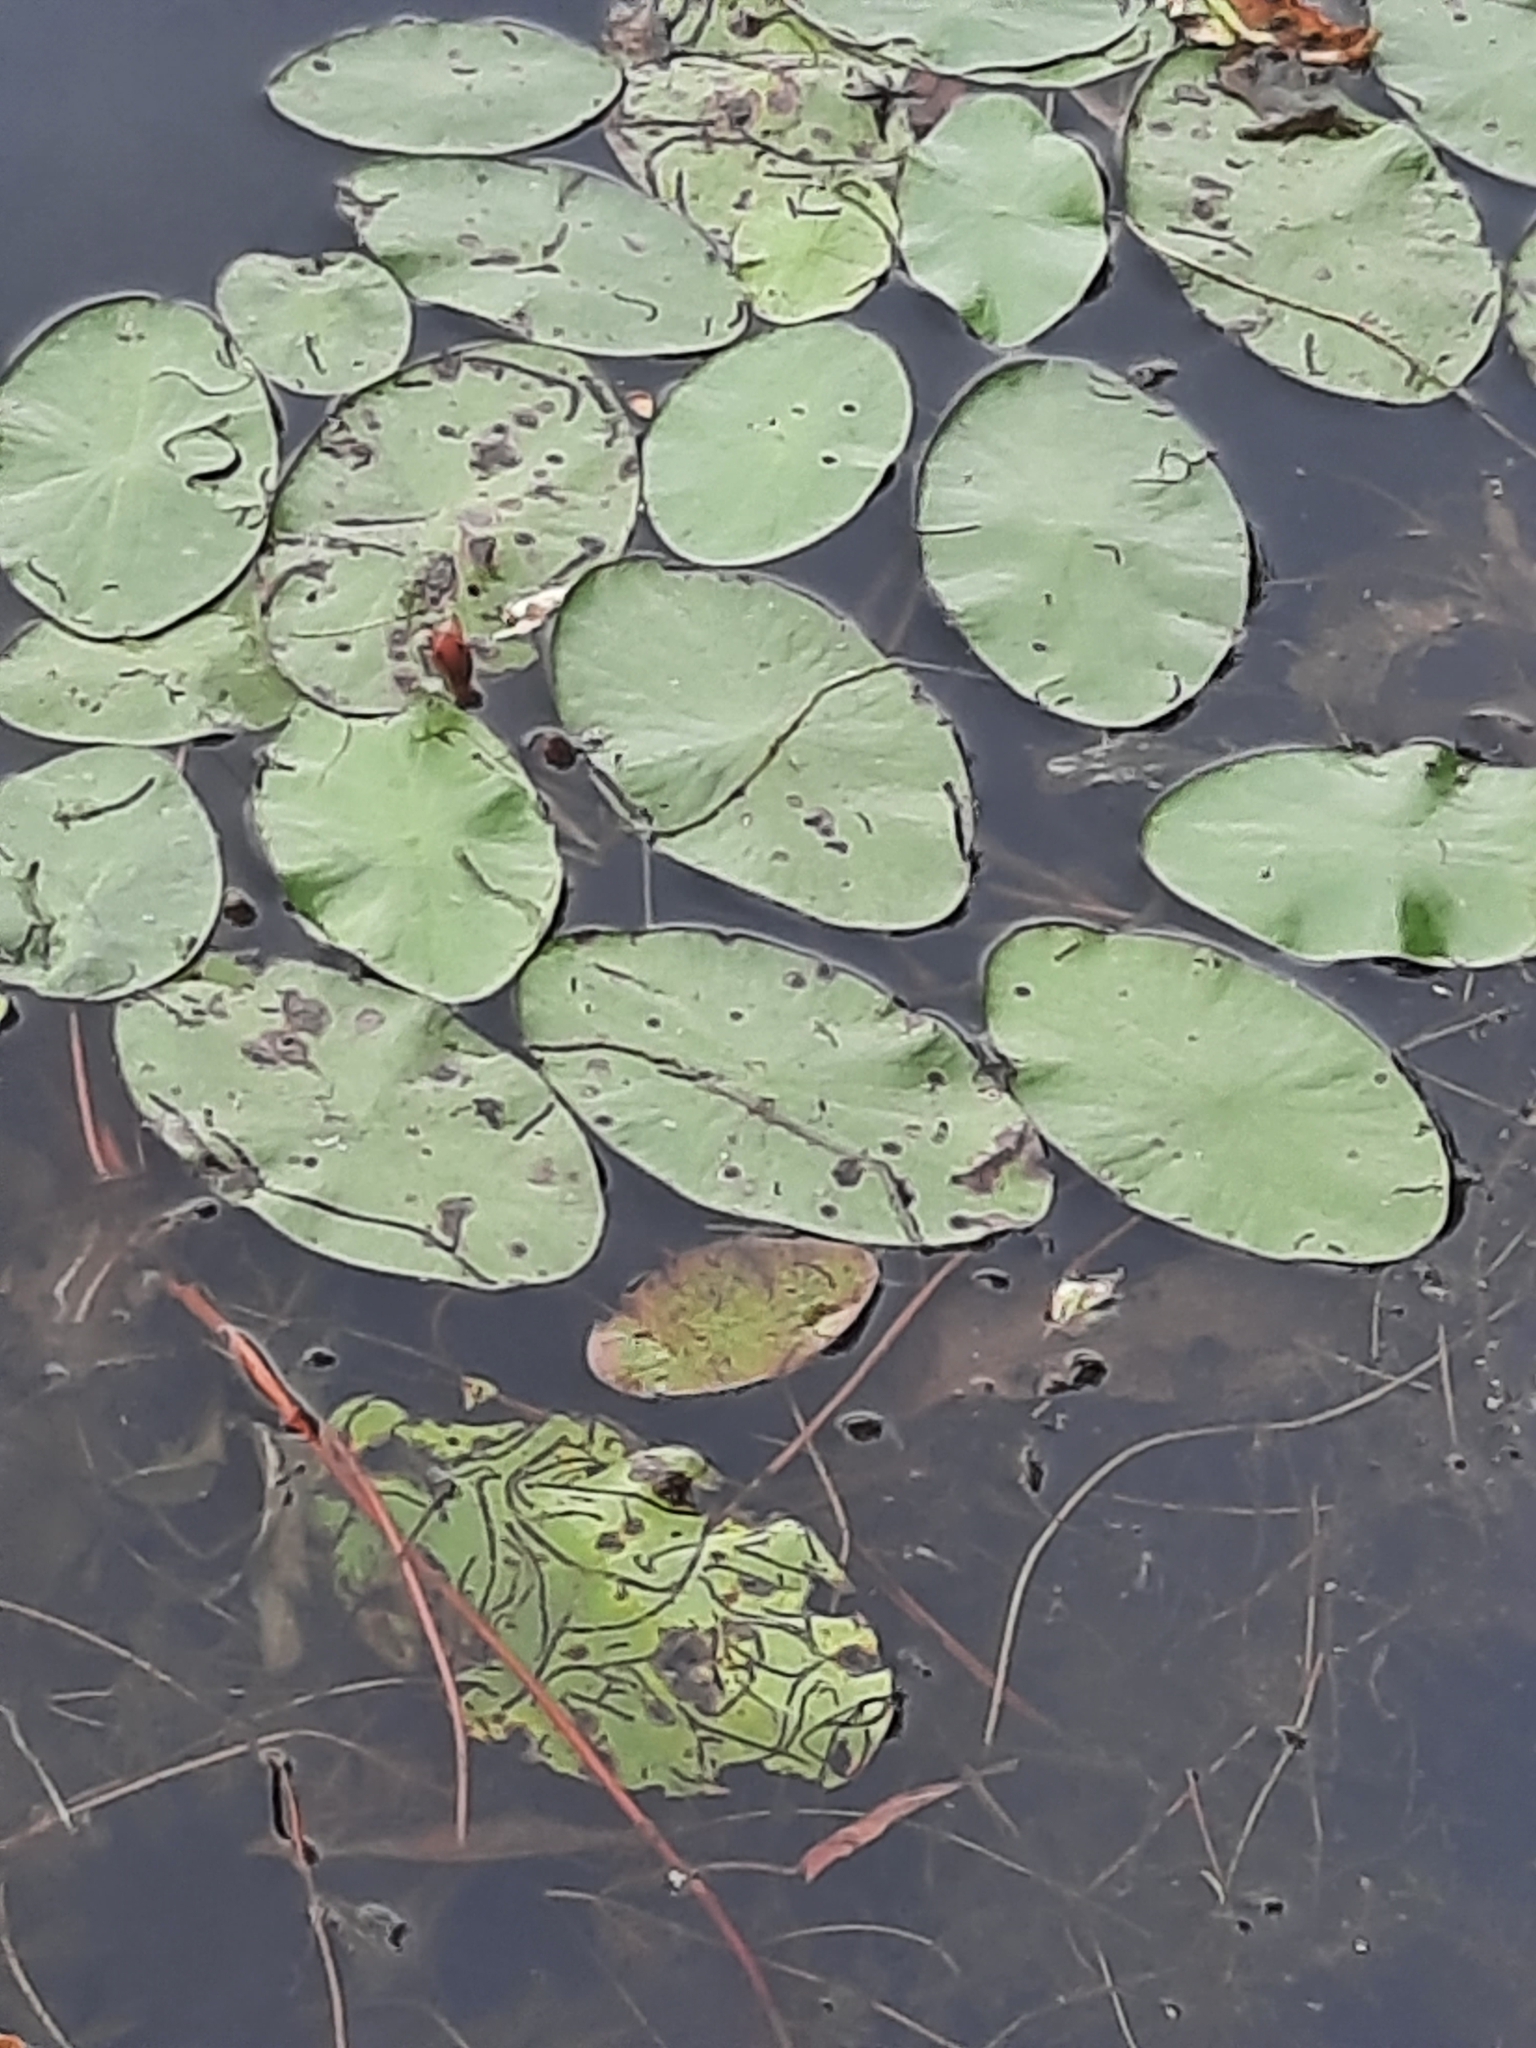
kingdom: Plantae
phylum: Tracheophyta
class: Magnoliopsida
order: Nymphaeales
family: Cabombaceae
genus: Brasenia
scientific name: Brasenia schreberi
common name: Water-shield
